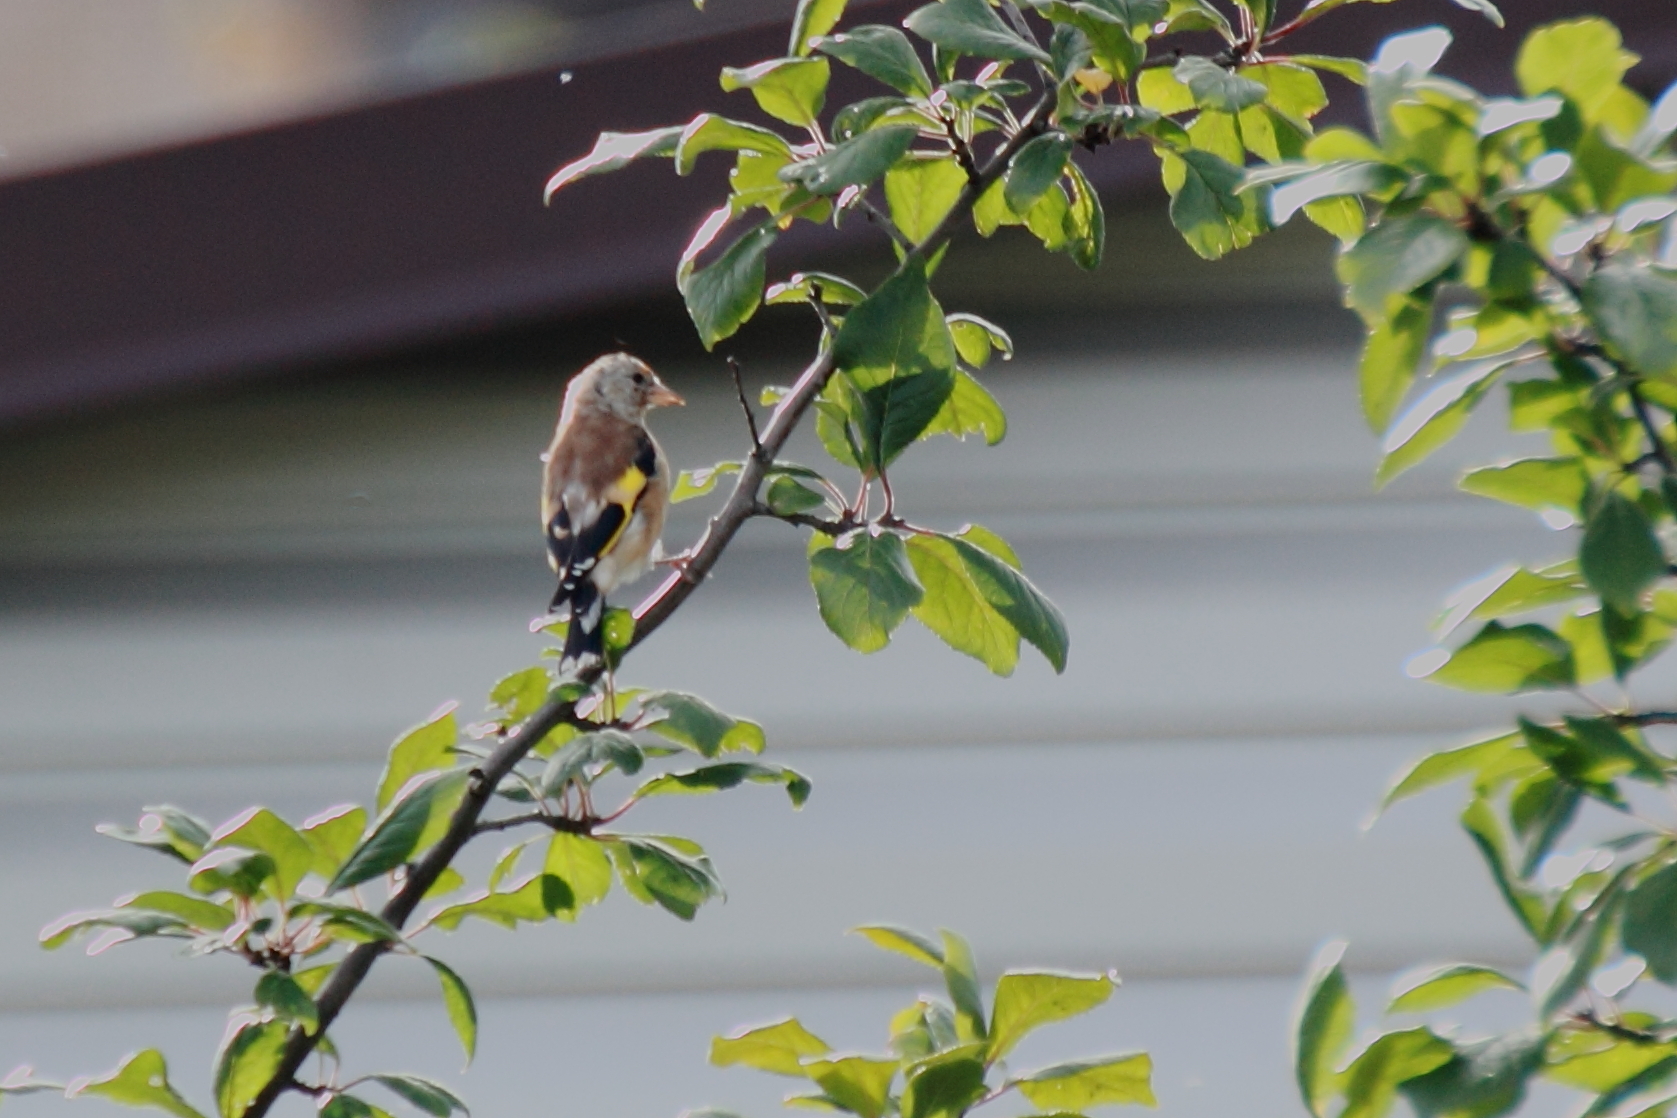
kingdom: Animalia
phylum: Chordata
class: Aves
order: Passeriformes
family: Fringillidae
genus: Carduelis
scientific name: Carduelis carduelis
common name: European goldfinch
